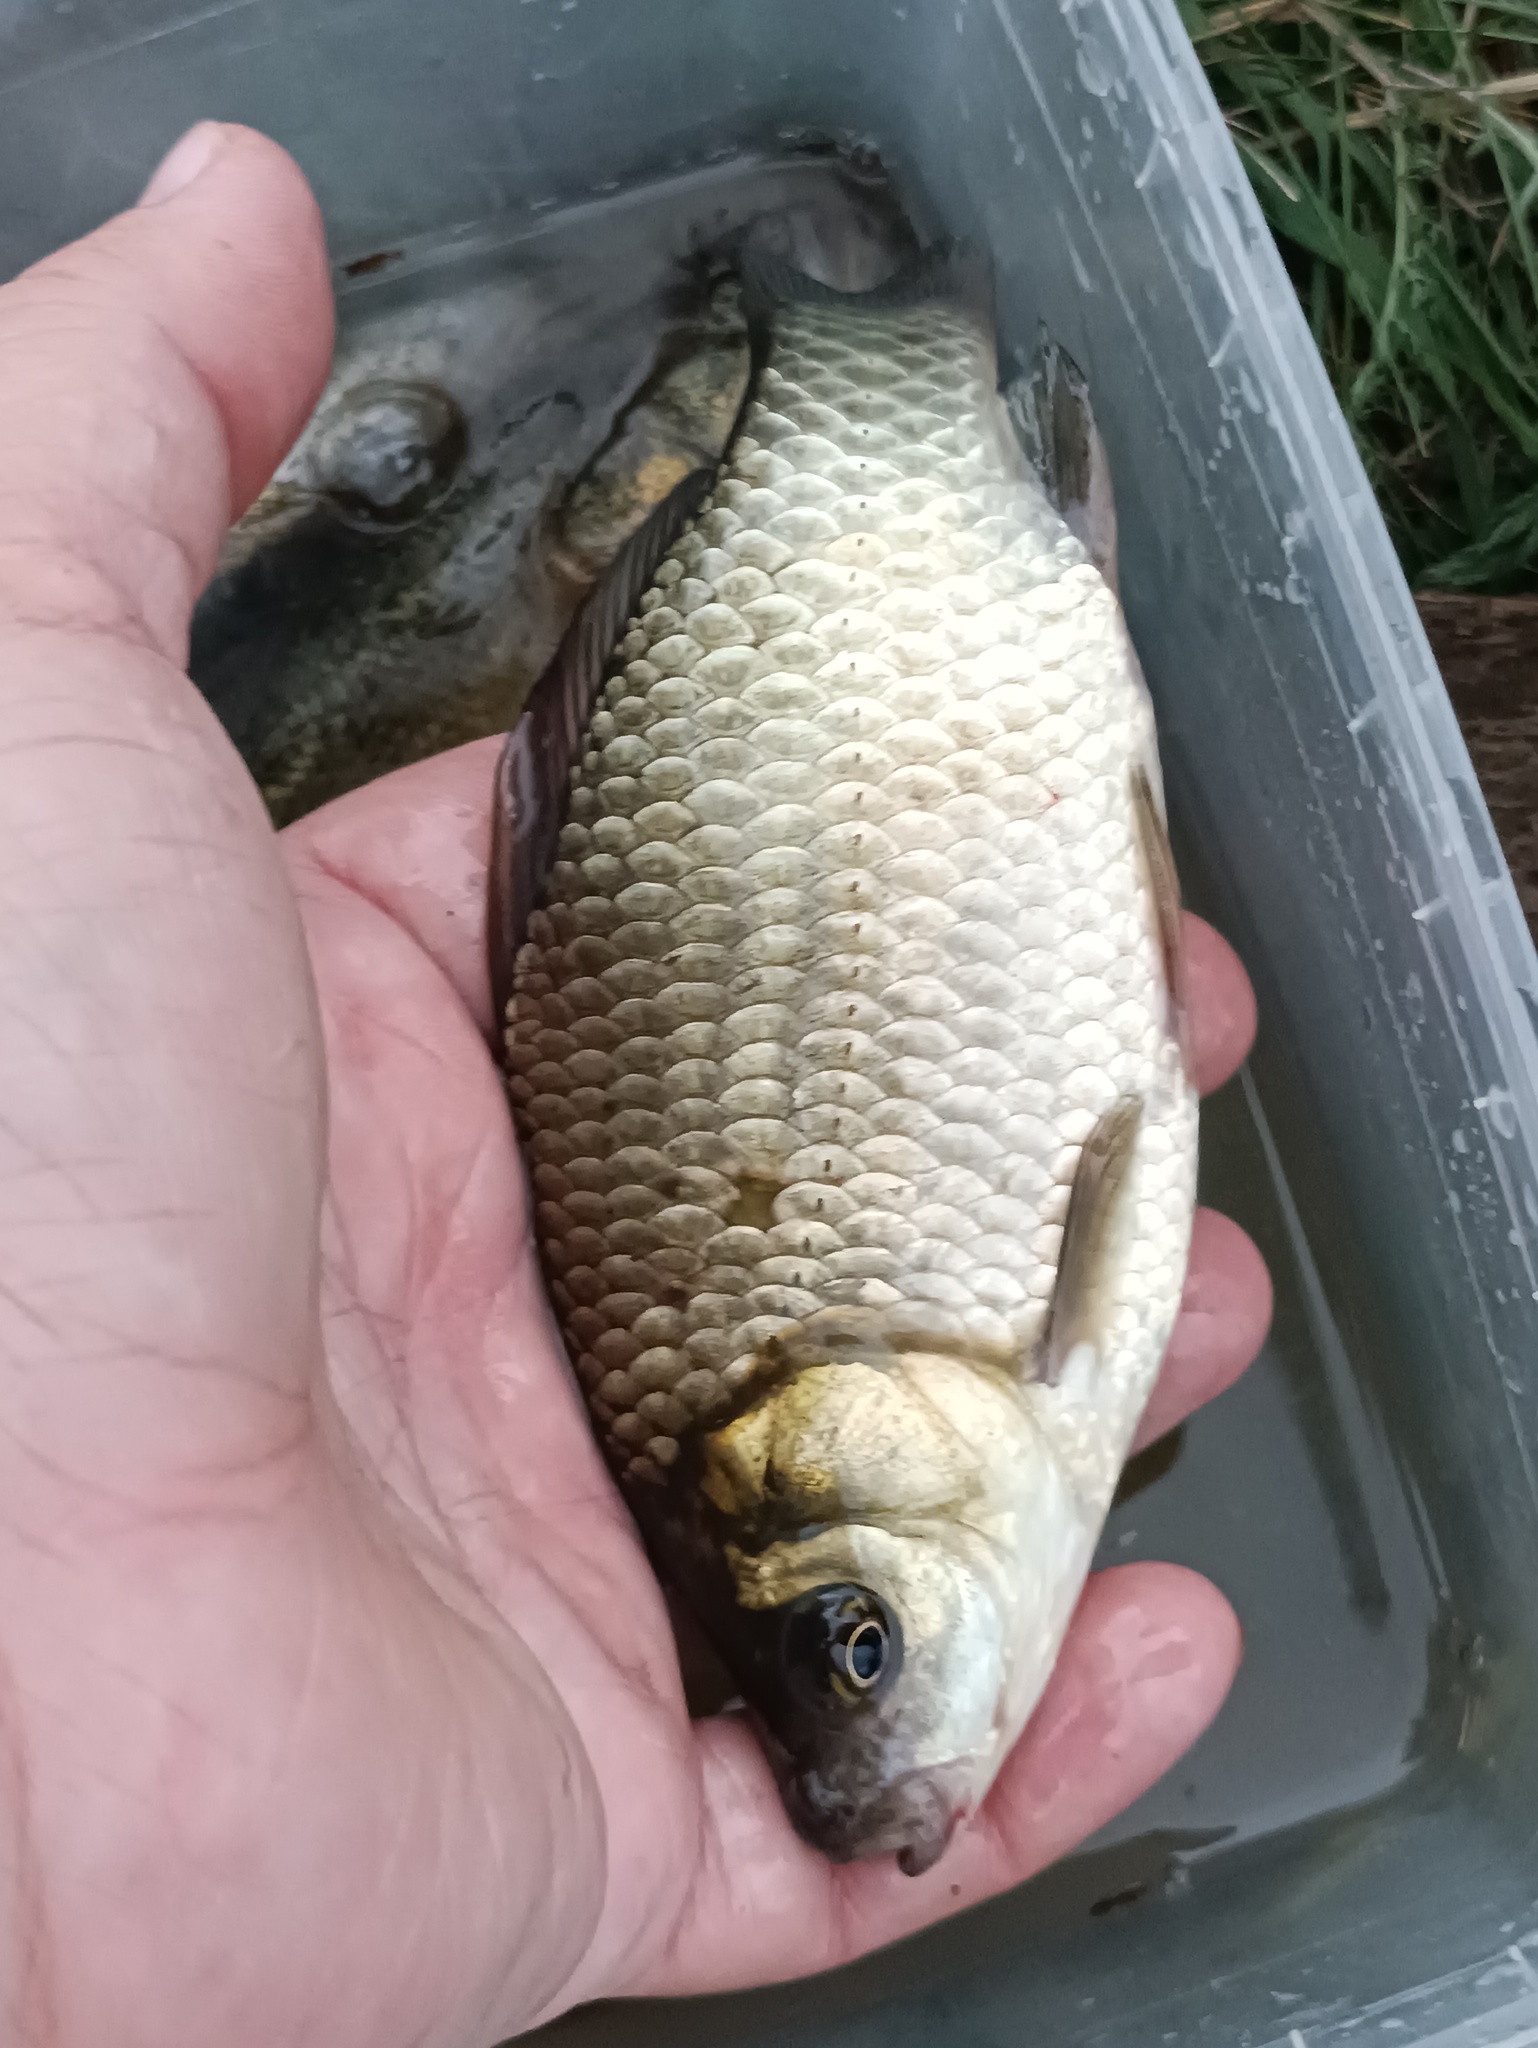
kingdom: Animalia
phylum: Chordata
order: Cypriniformes
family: Cyprinidae
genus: Carassius
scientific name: Carassius gibelio
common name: Prussian carp
